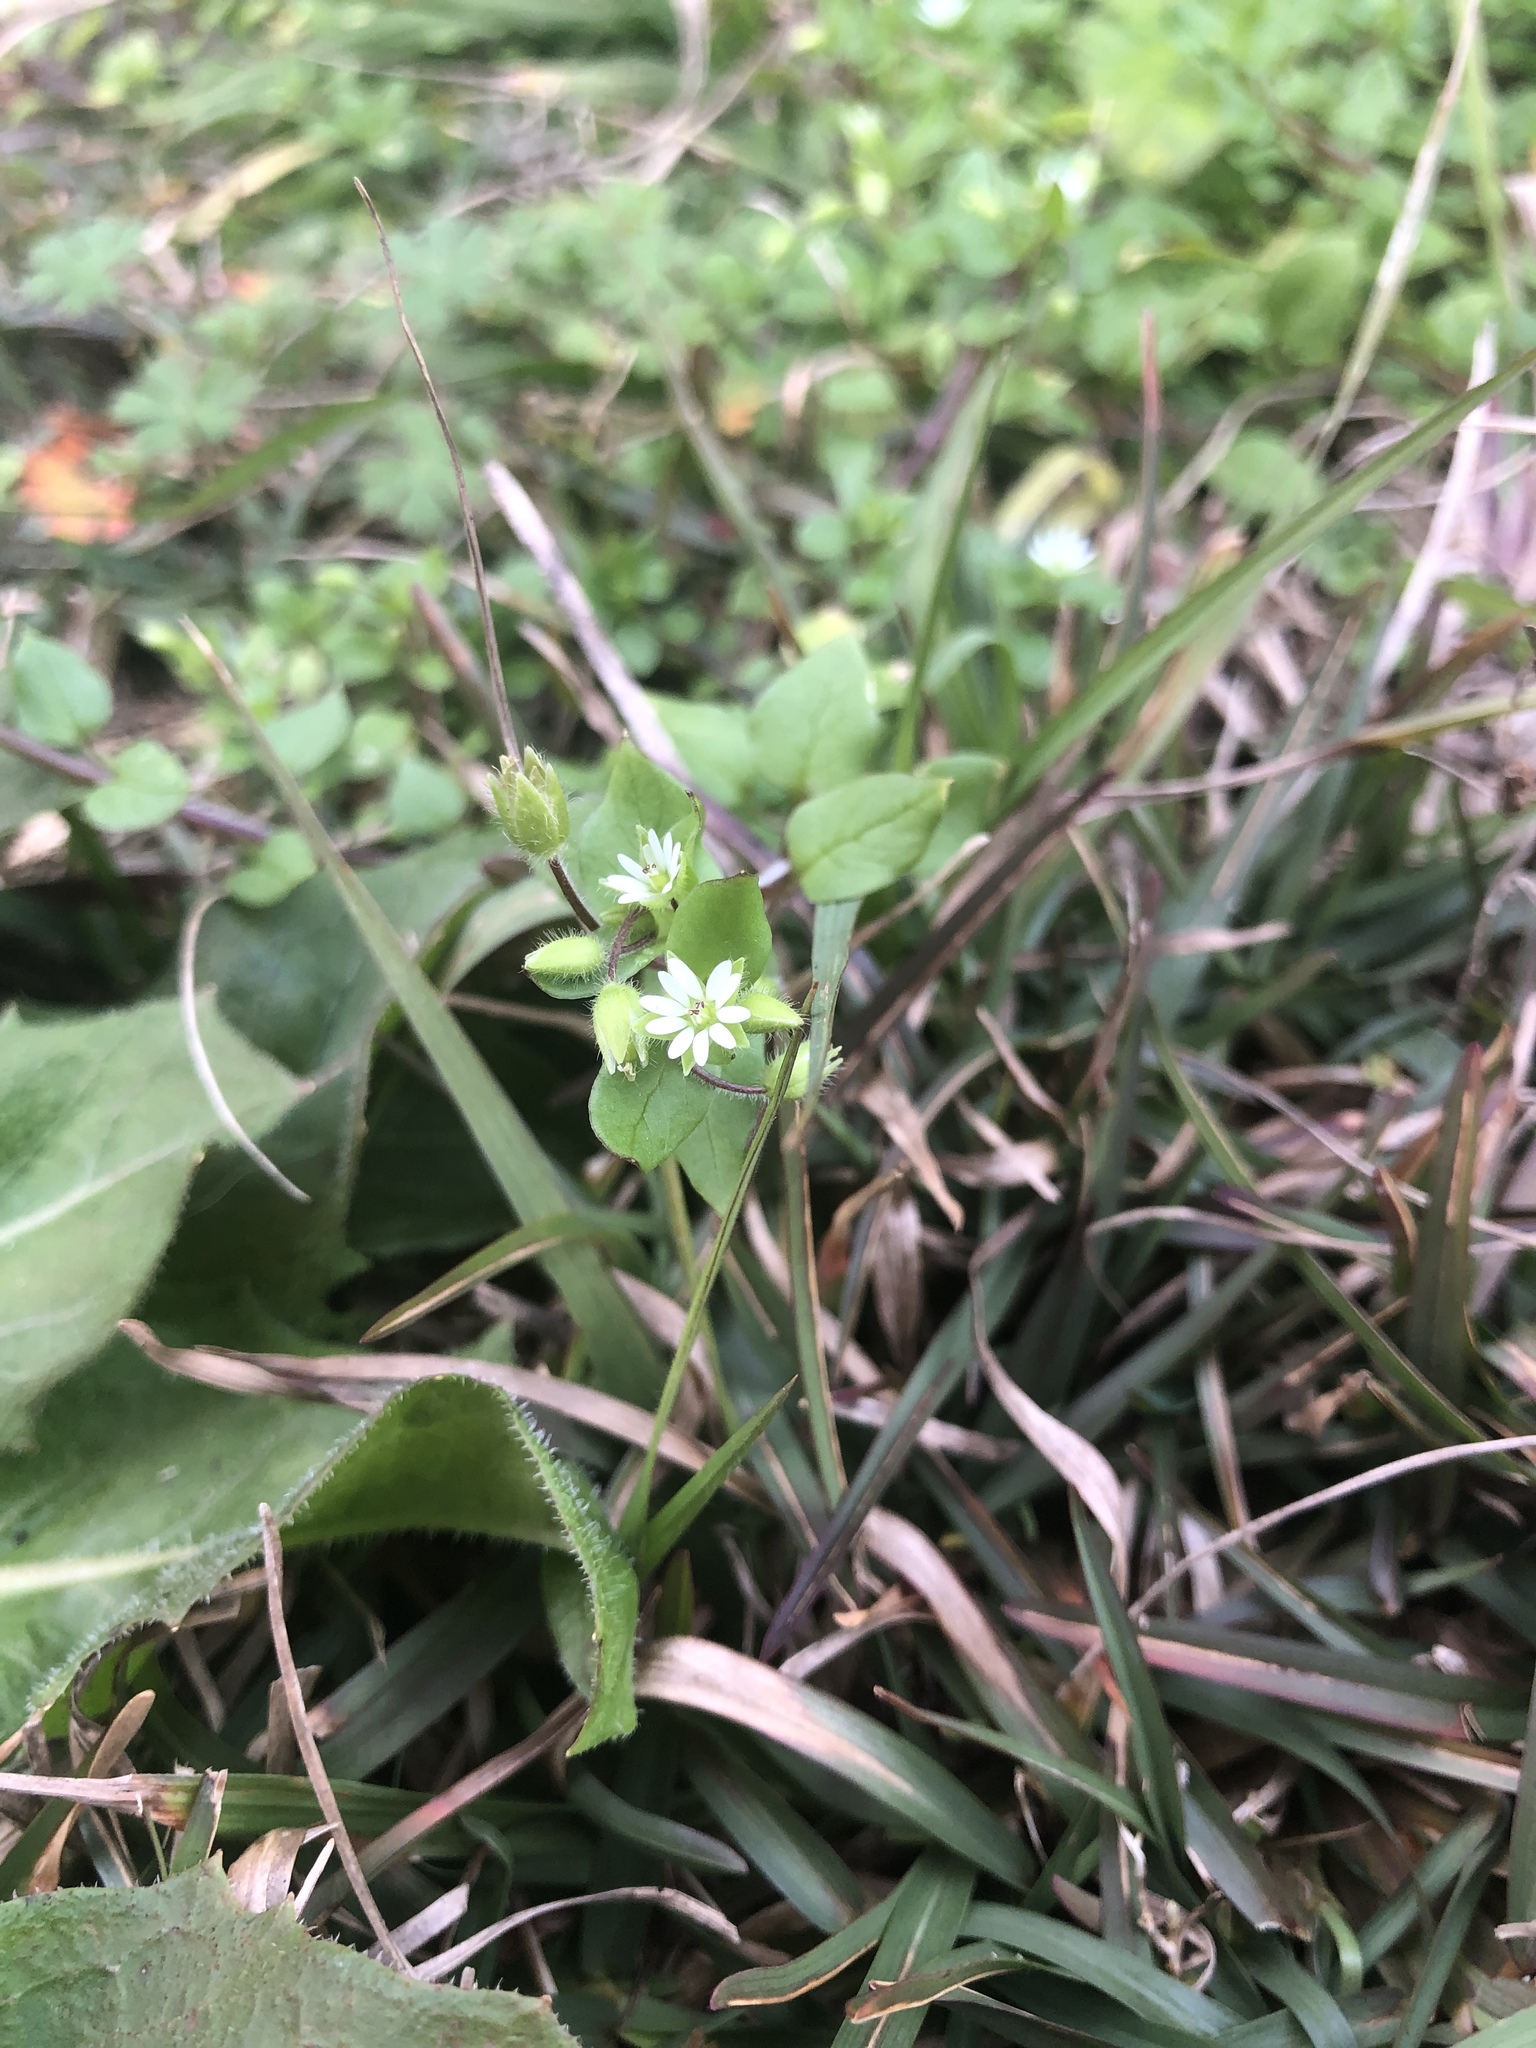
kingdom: Plantae
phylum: Tracheophyta
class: Magnoliopsida
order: Caryophyllales
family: Caryophyllaceae
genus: Stellaria
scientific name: Stellaria media
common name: Common chickweed
